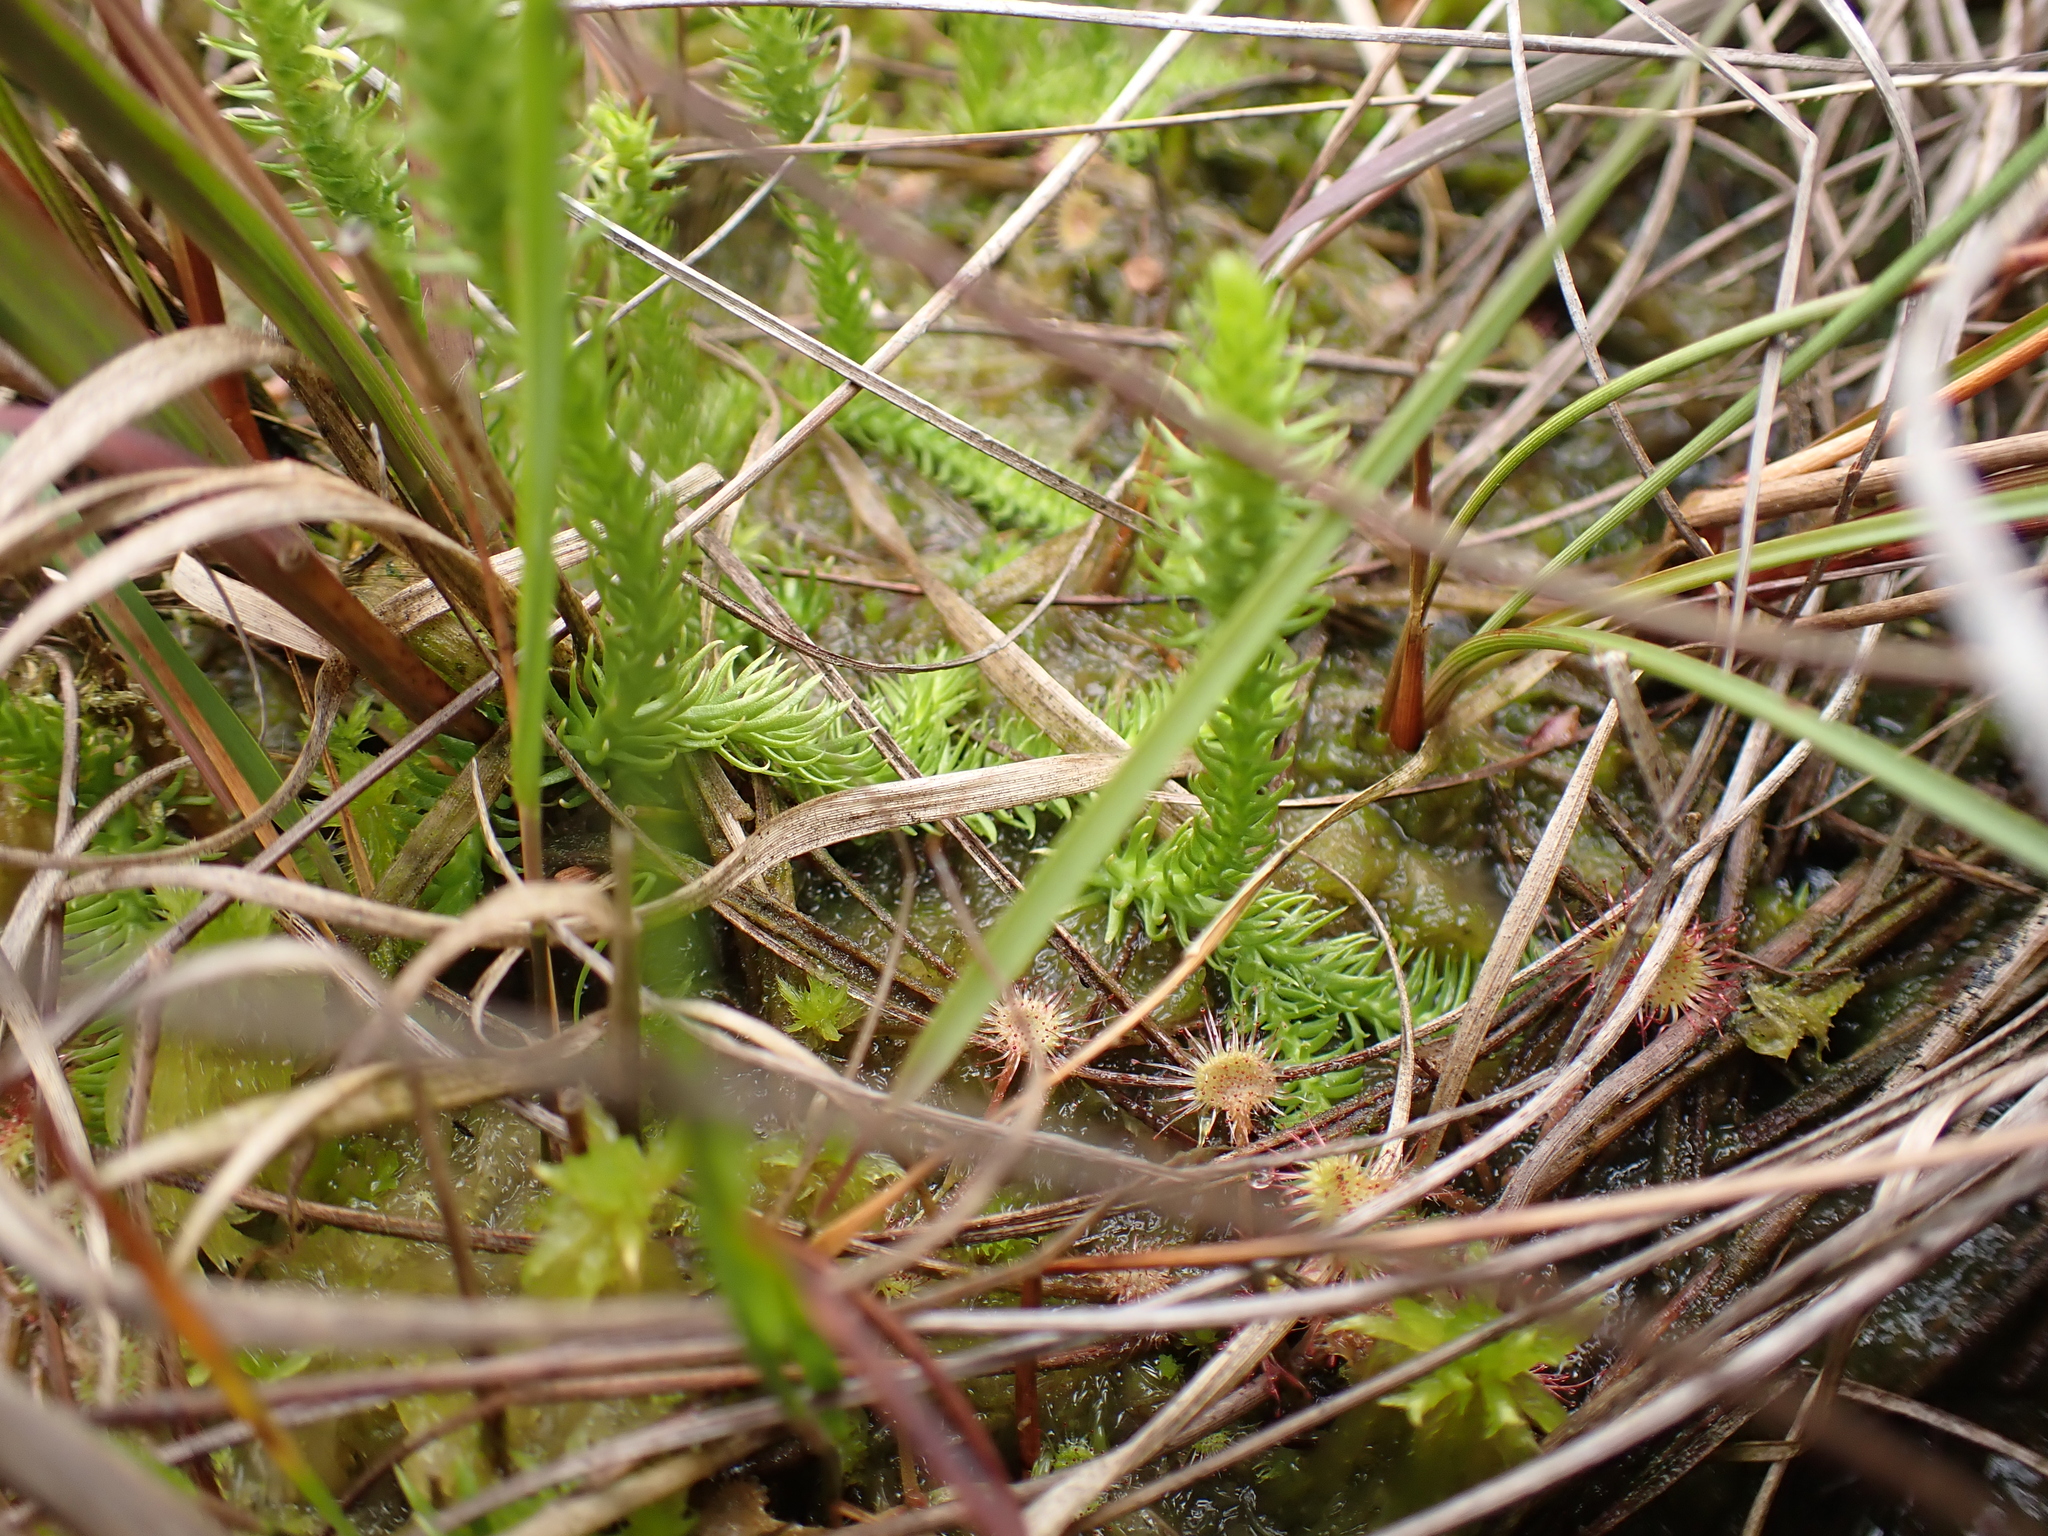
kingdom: Plantae
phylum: Tracheophyta
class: Lycopodiopsida
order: Lycopodiales
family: Lycopodiaceae
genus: Lycopodiella
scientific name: Lycopodiella inundata
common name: Marsh clubmoss
